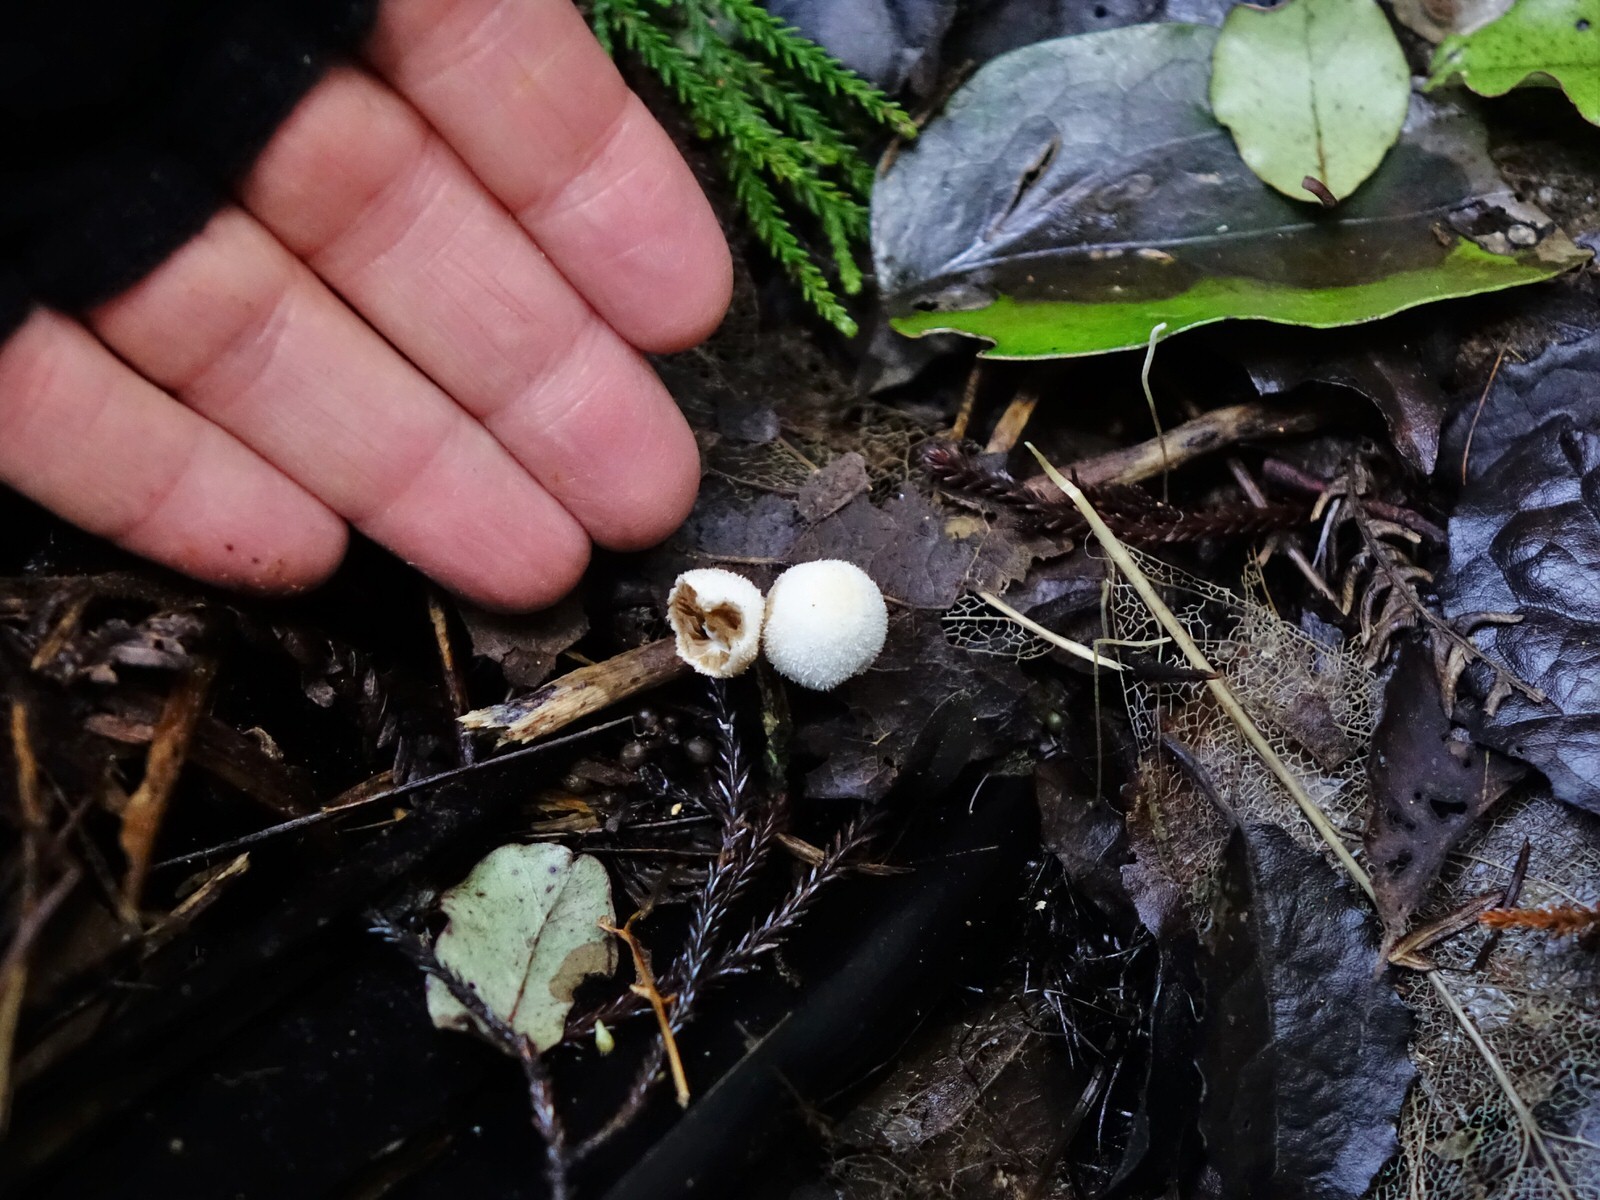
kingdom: Fungi
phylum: Basidiomycota
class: Agaricomycetes
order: Agaricales
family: Bolbitiaceae
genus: Tympanella
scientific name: Tympanella galanthina
